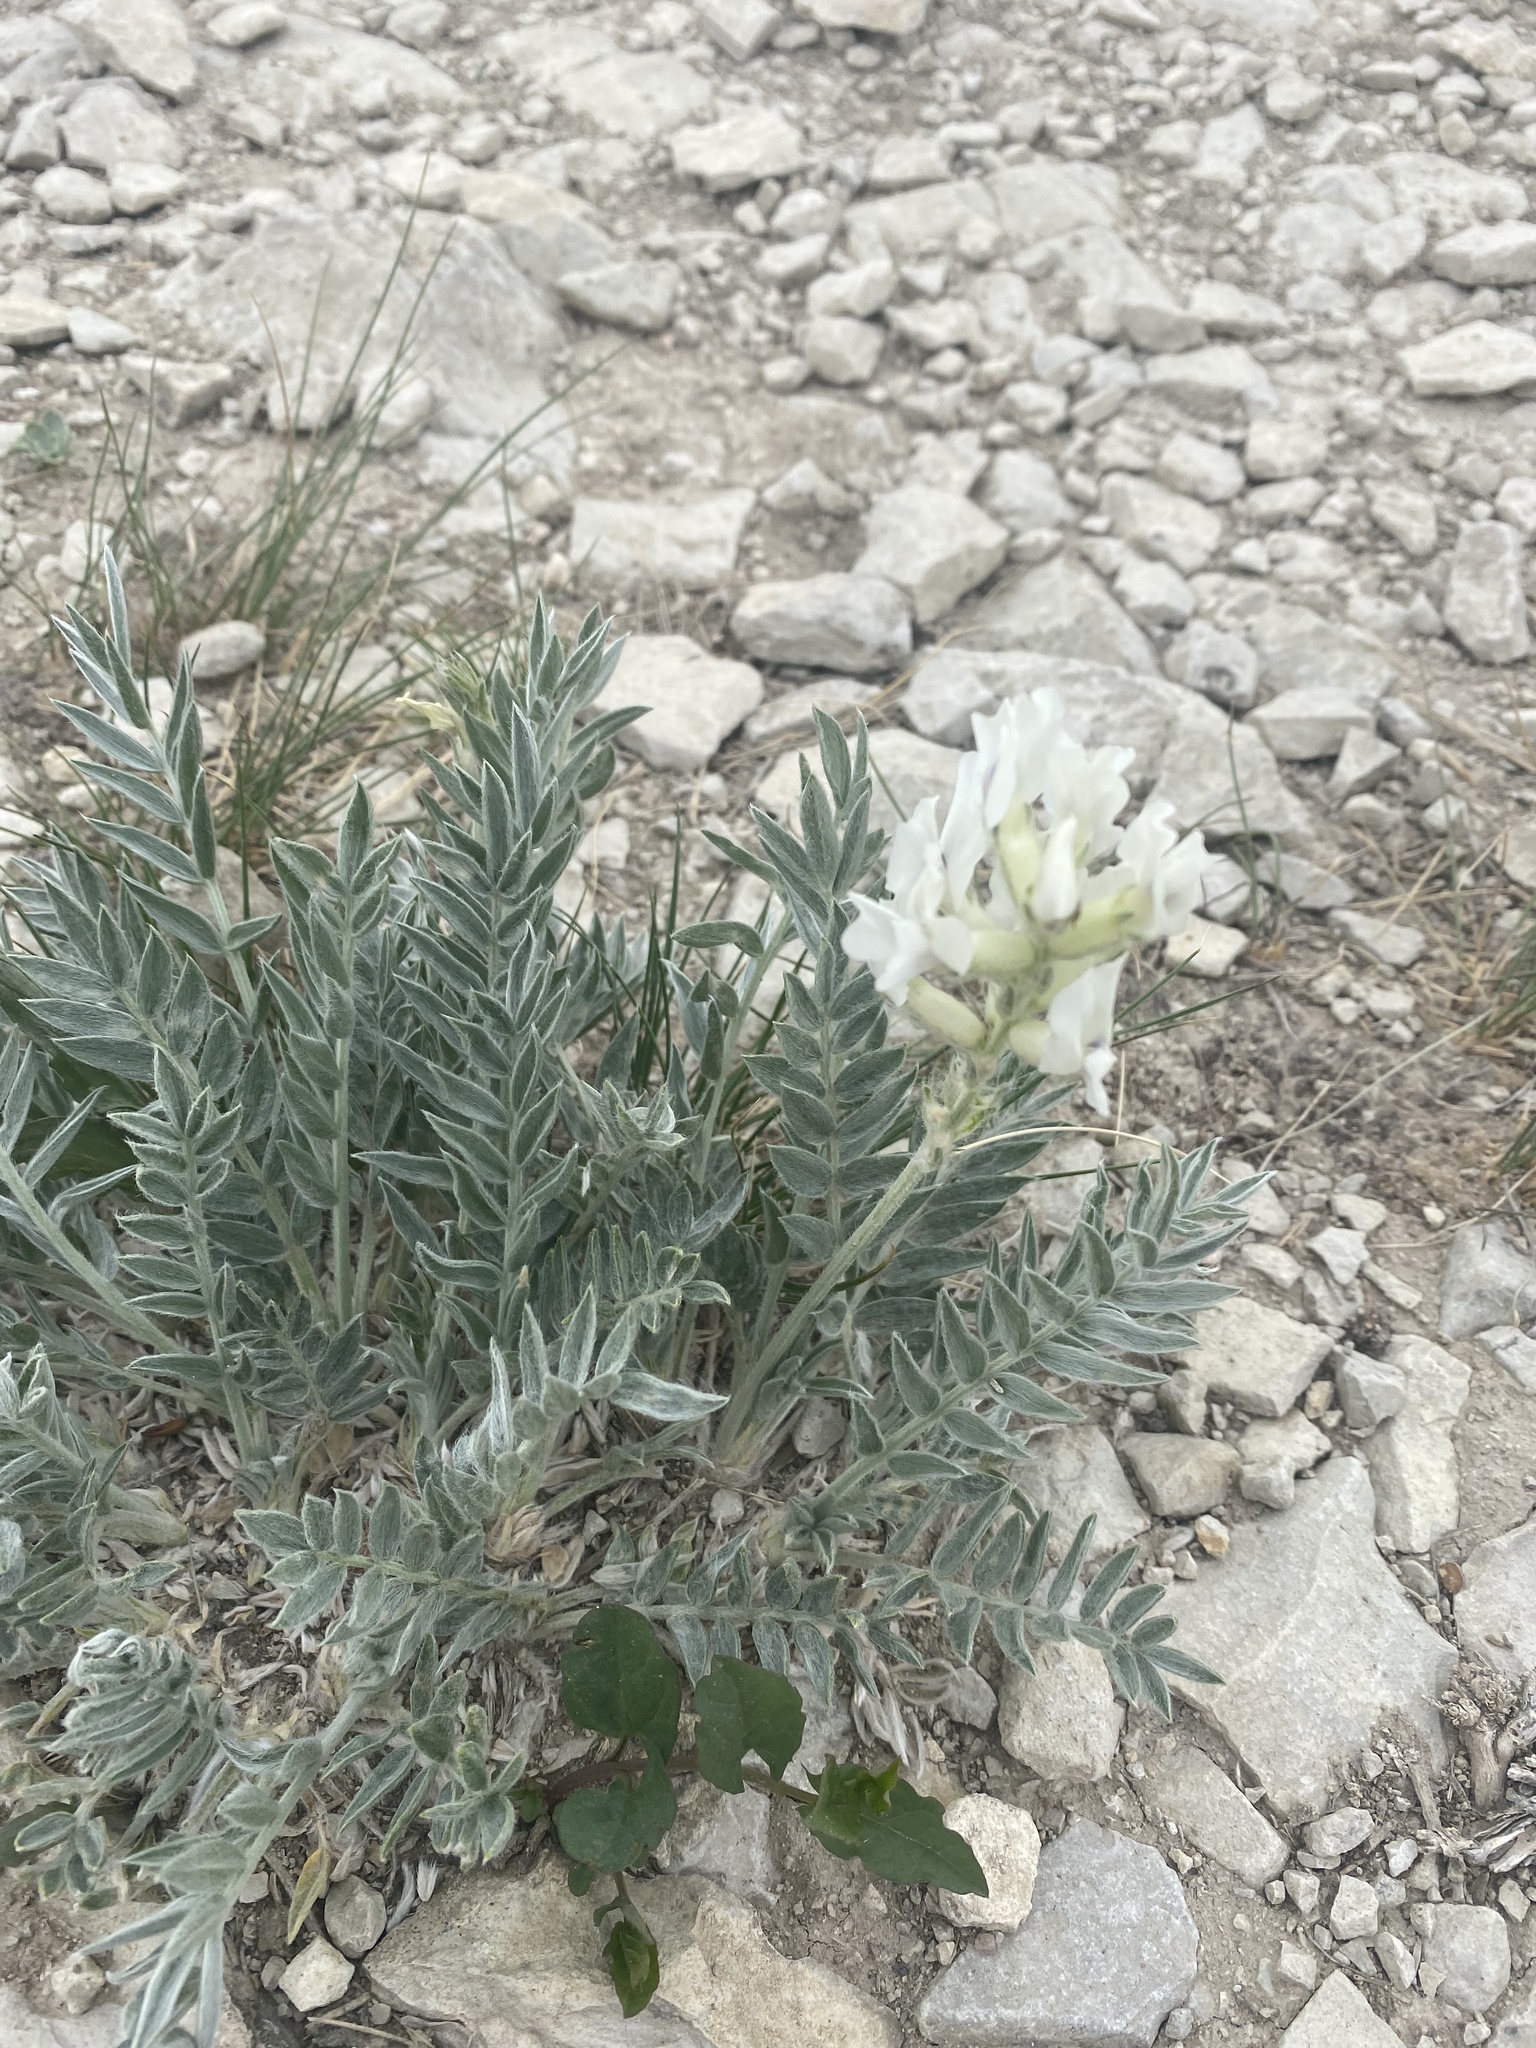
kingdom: Plantae
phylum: Tracheophyta
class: Magnoliopsida
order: Fabales
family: Fabaceae
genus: Oxytropis
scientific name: Oxytropis sericea
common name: Silky locoweed
